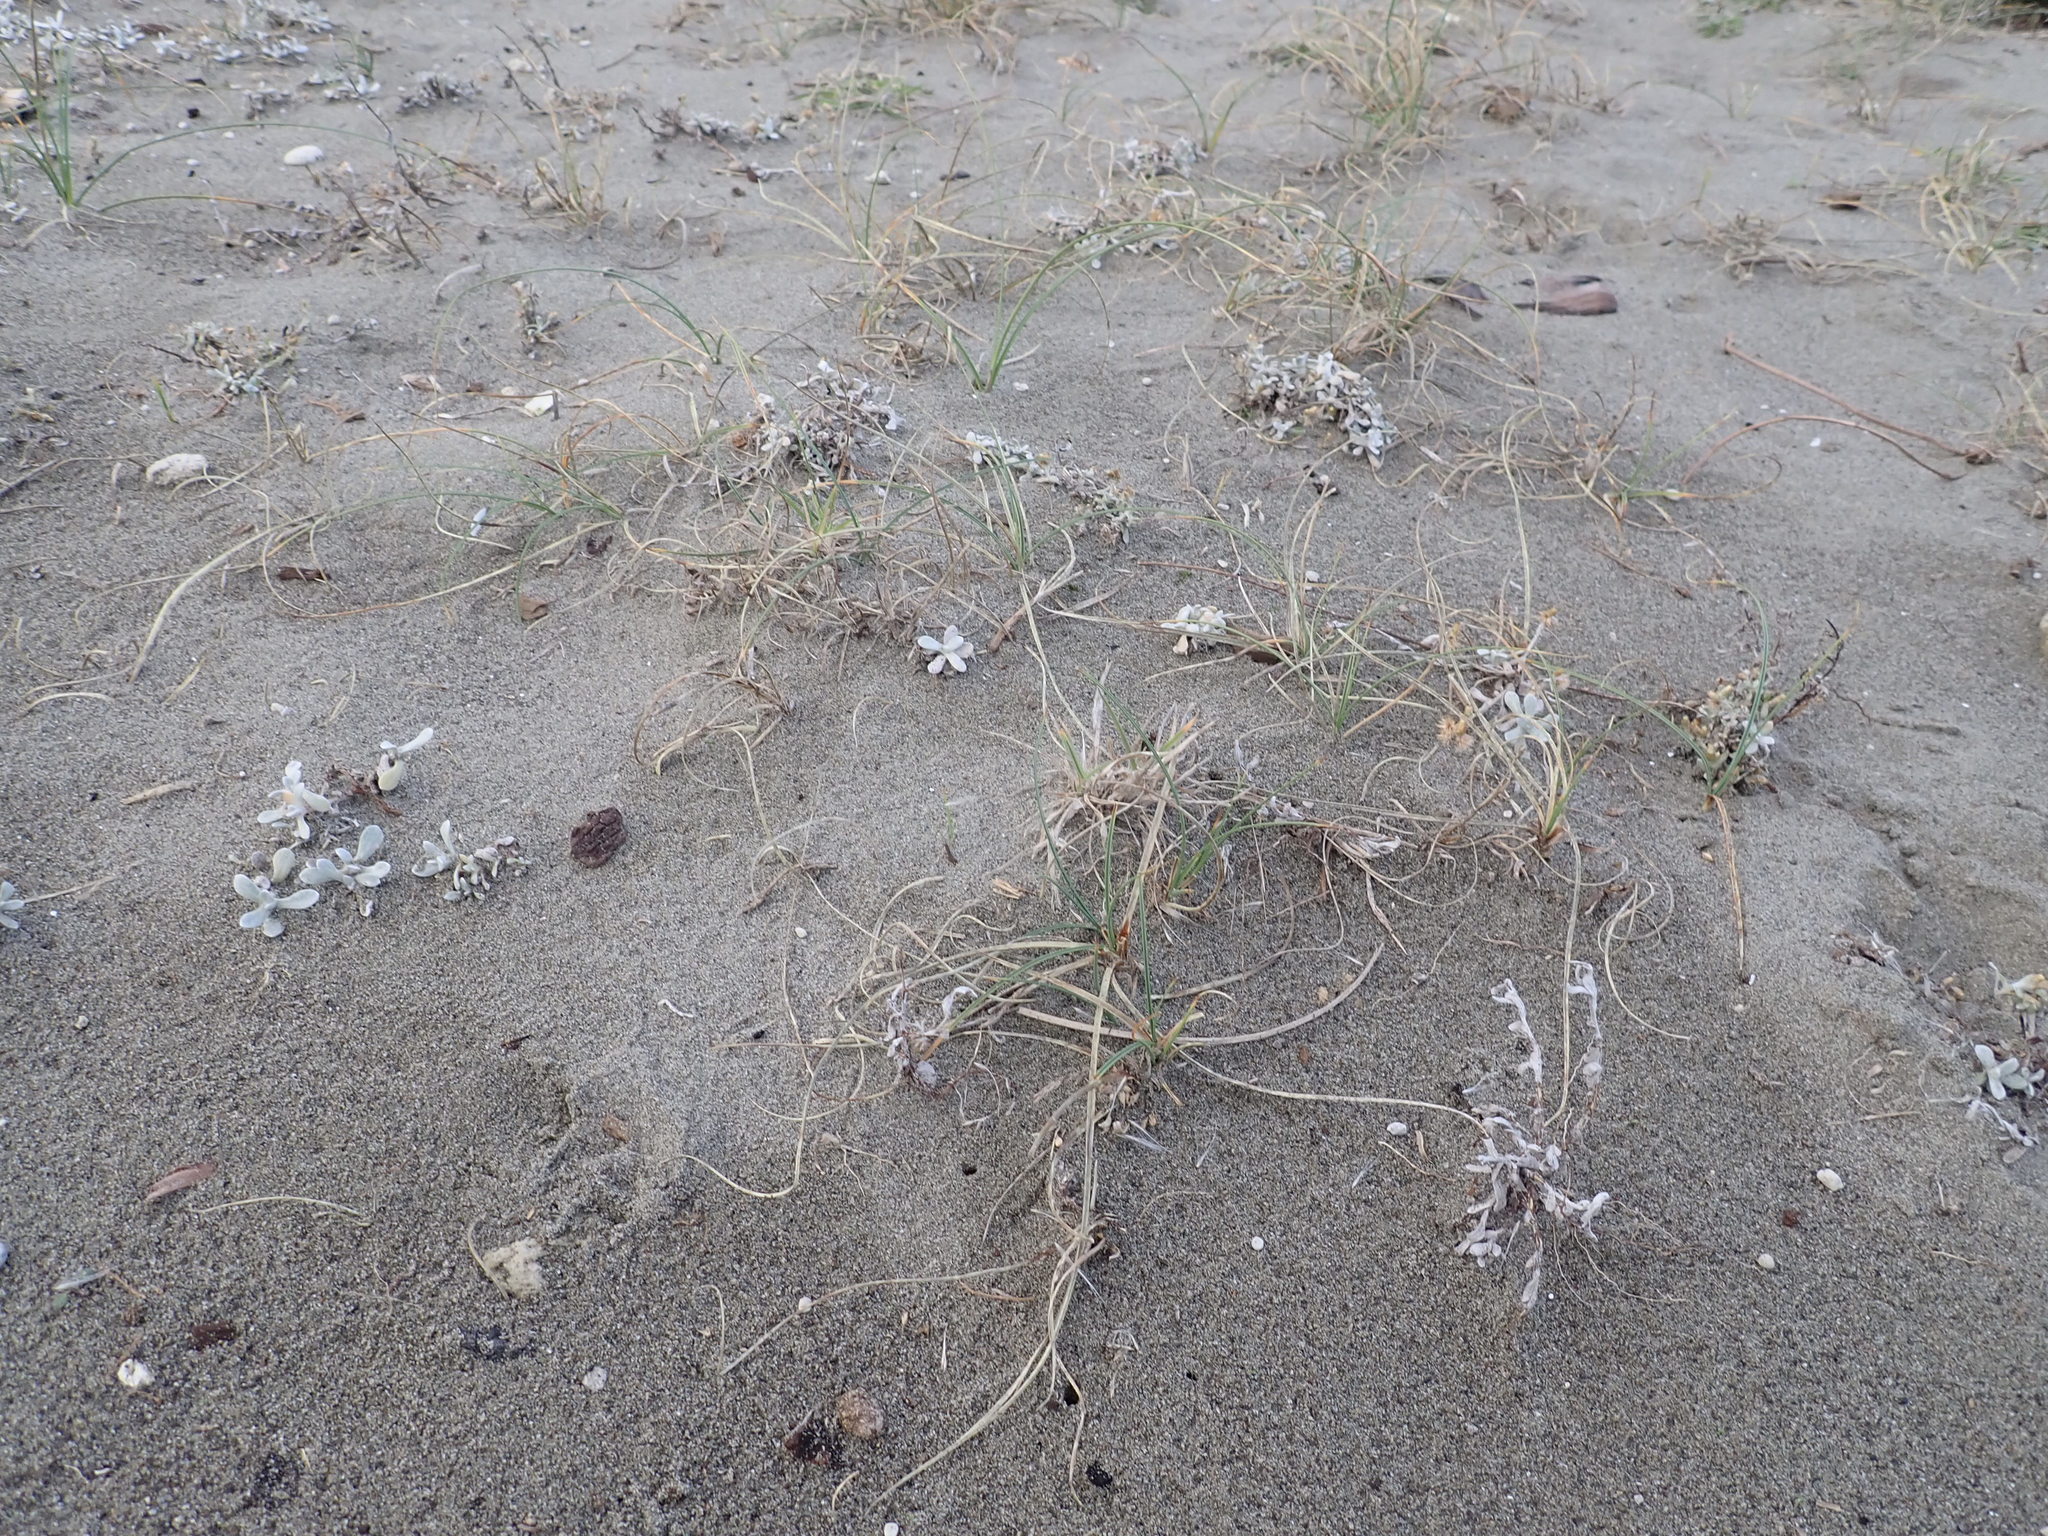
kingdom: Plantae
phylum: Tracheophyta
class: Magnoliopsida
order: Asterales
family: Asteraceae
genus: Helichrysum
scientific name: Helichrysum luteoalbum
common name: Daisy
